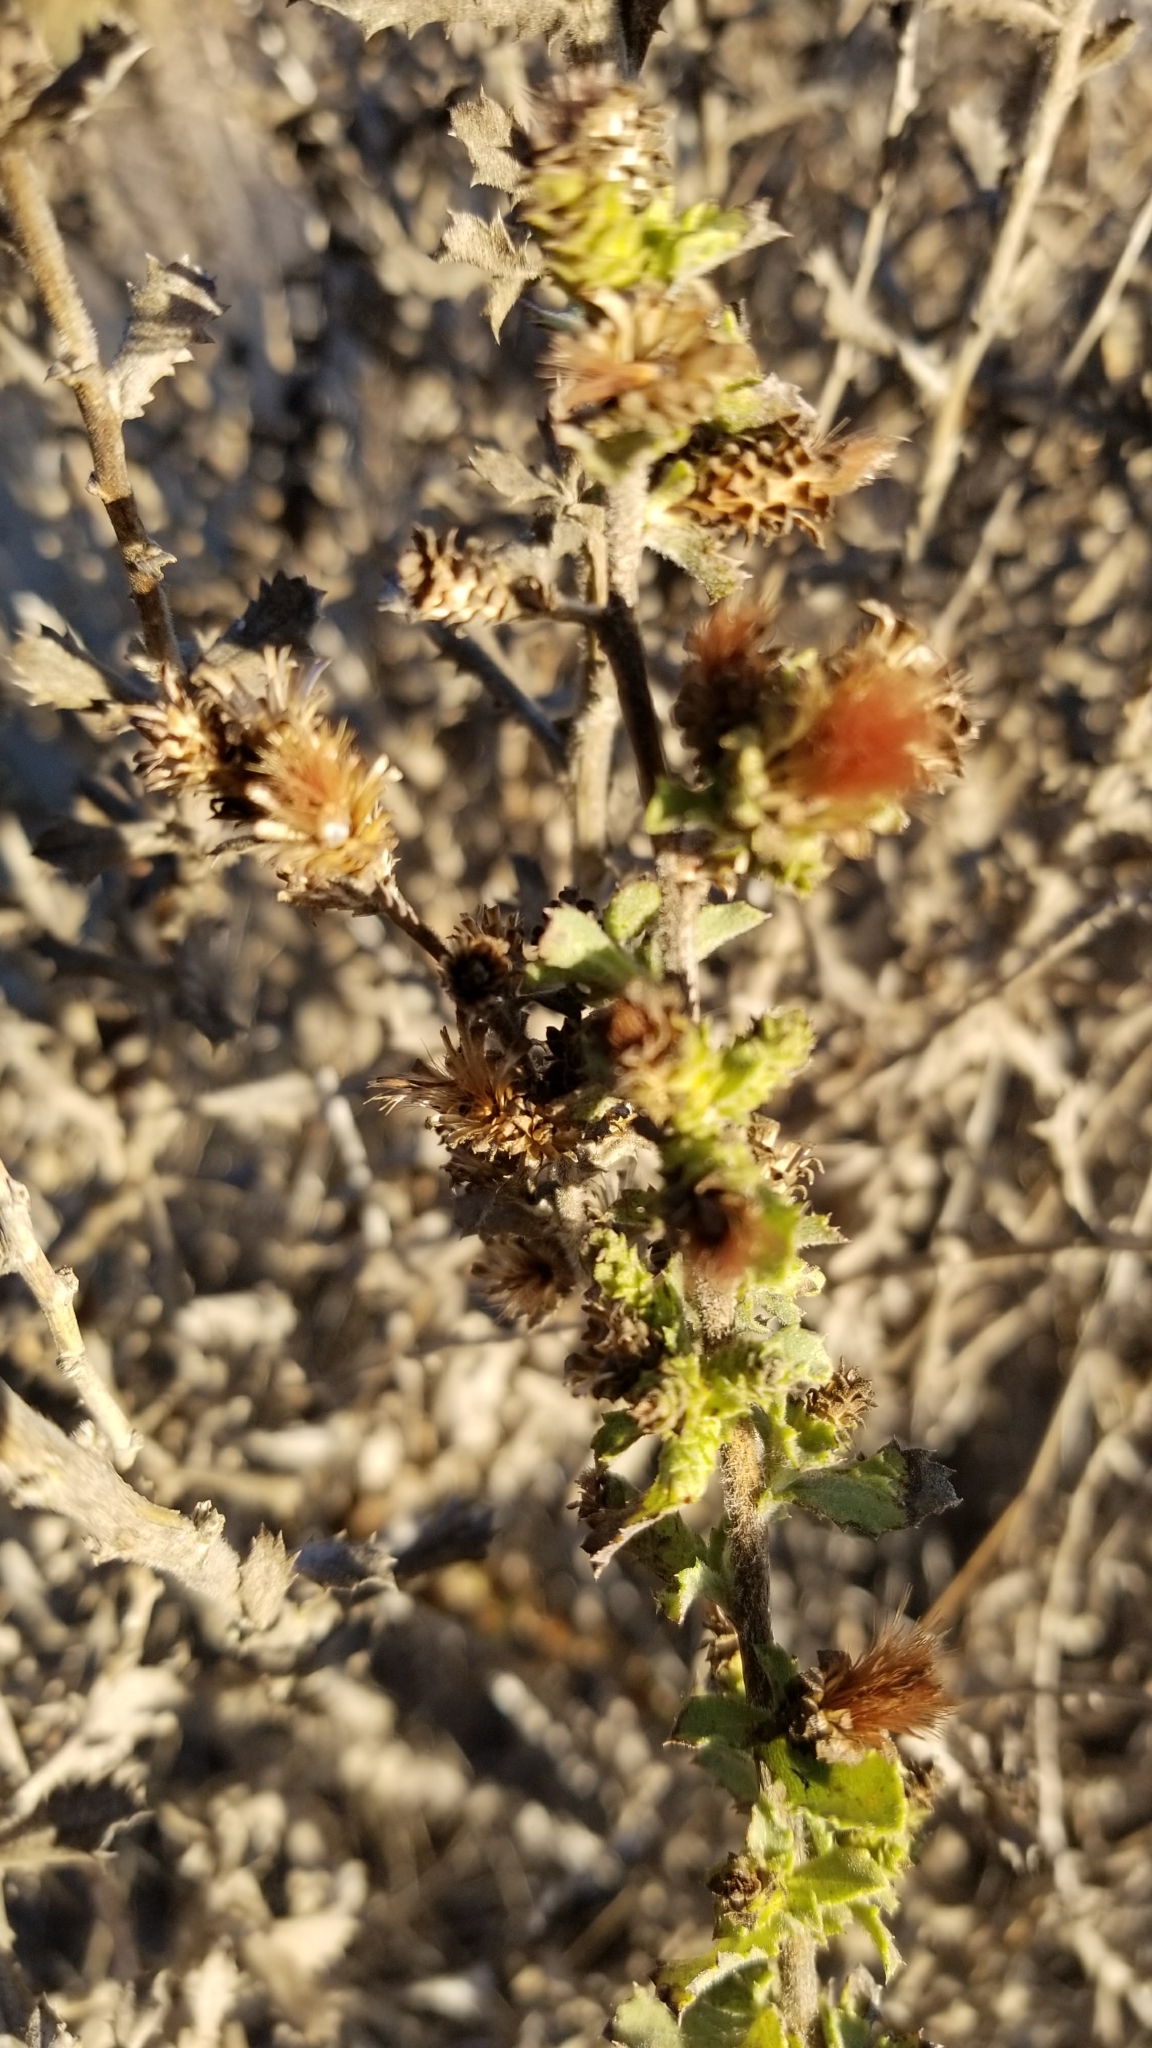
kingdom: Plantae
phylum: Tracheophyta
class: Magnoliopsida
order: Asterales
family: Asteraceae
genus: Hazardia
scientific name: Hazardia squarrosa
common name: Saw-tooth goldenbush
